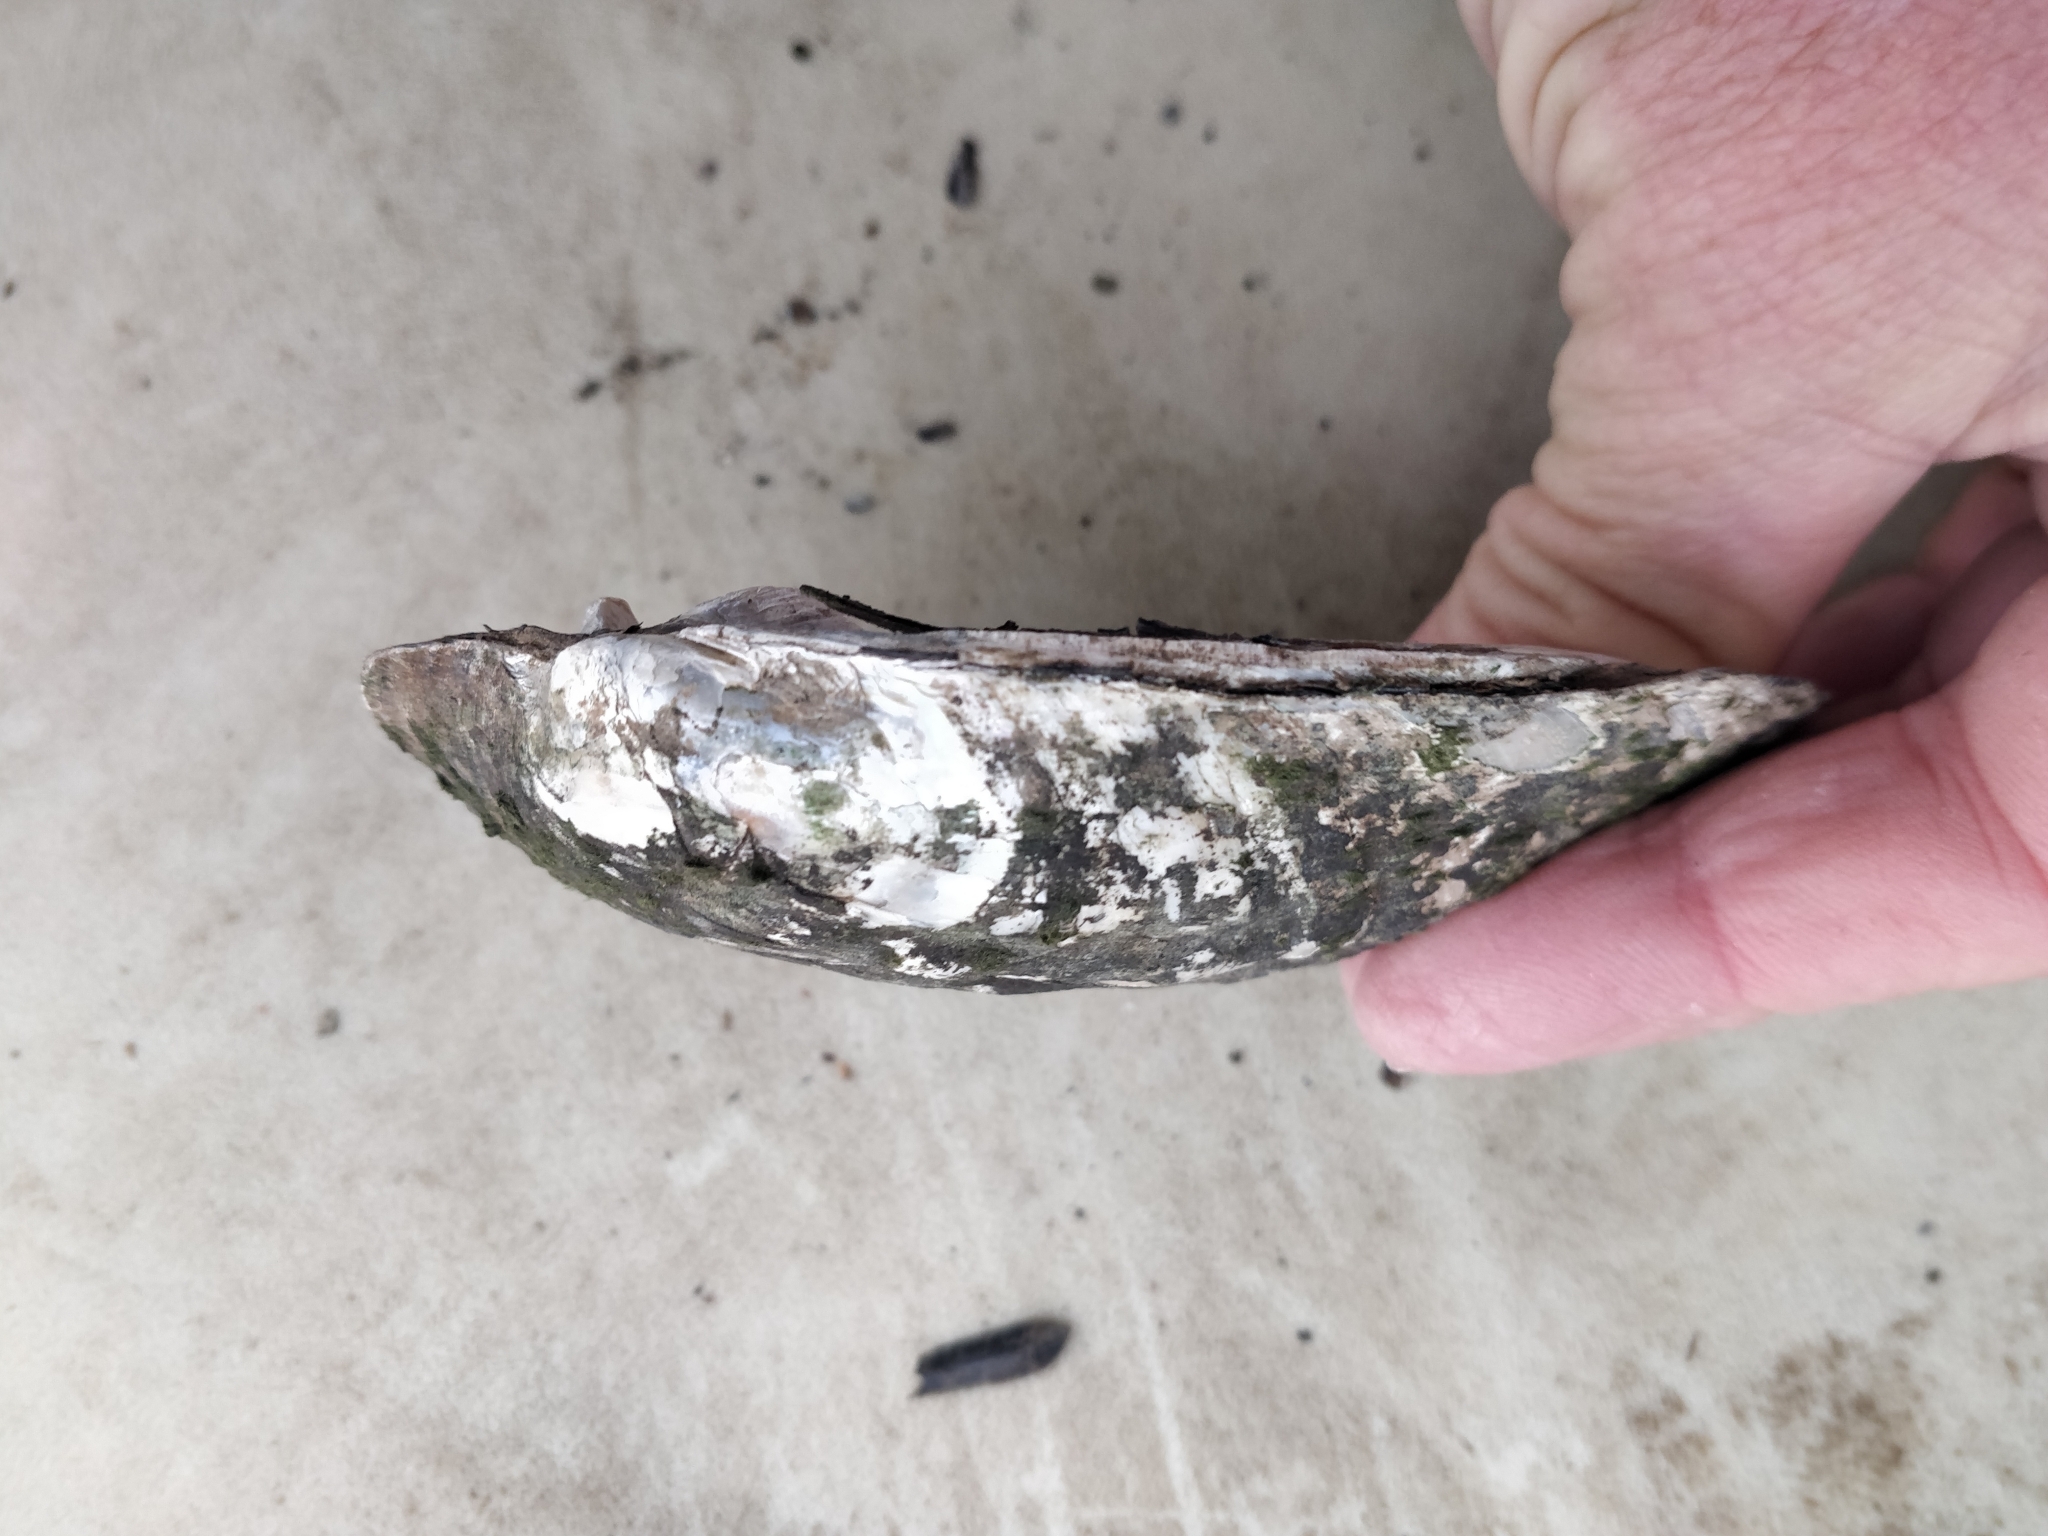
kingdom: Animalia
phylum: Mollusca
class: Bivalvia
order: Unionida
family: Unionidae
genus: Amblema
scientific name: Amblema plicata
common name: Threeridge
